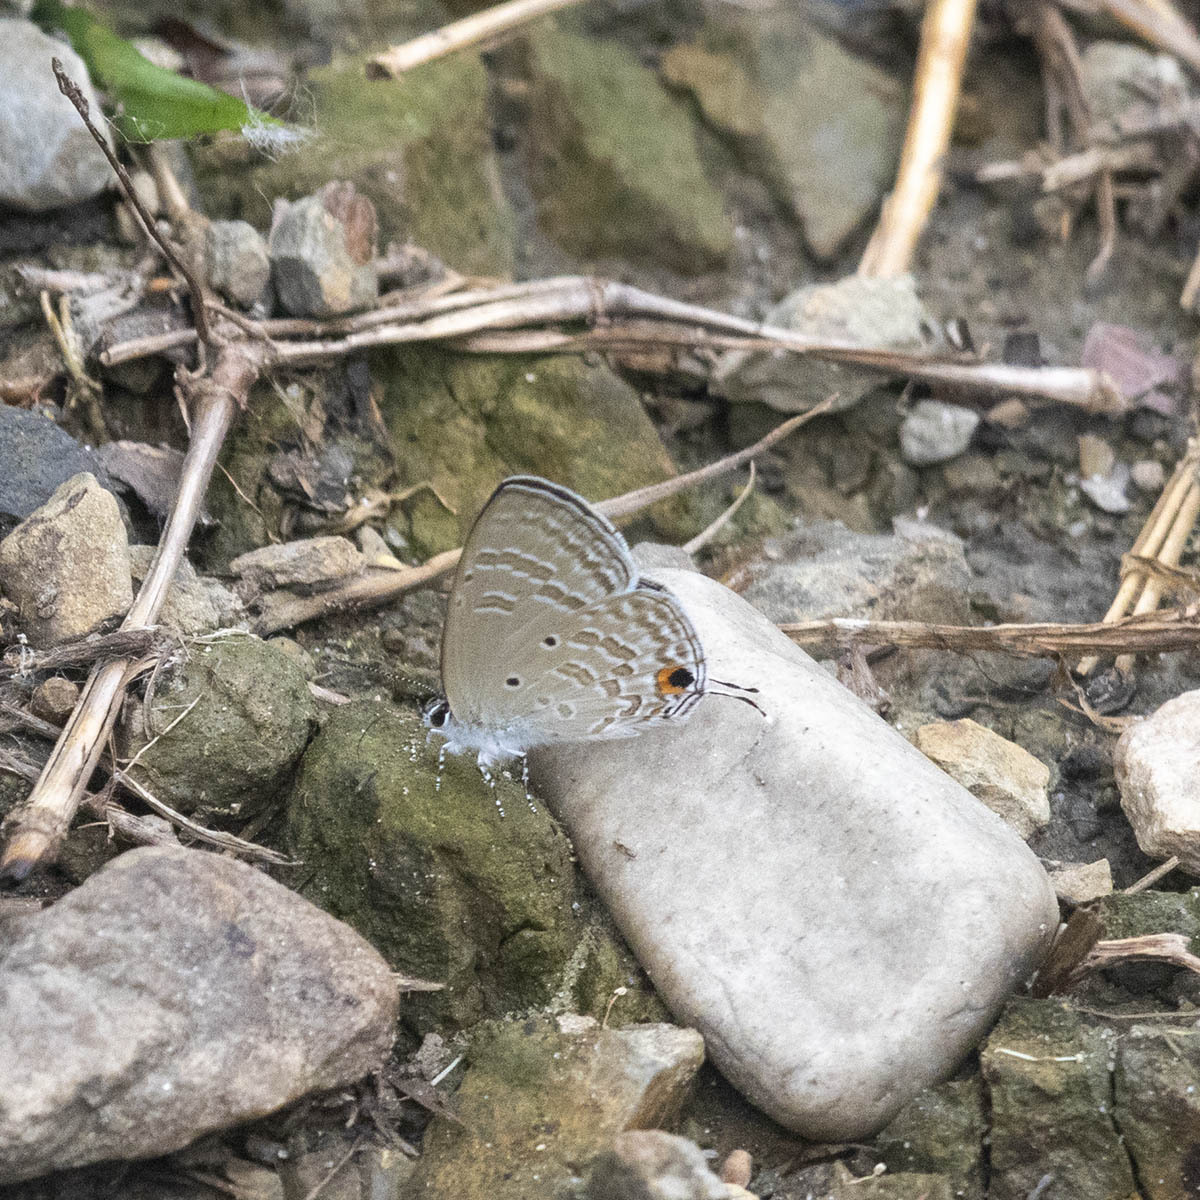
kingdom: Animalia
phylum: Arthropoda
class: Insecta
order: Lepidoptera
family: Lycaenidae
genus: Catochrysops
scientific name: Catochrysops strabo
